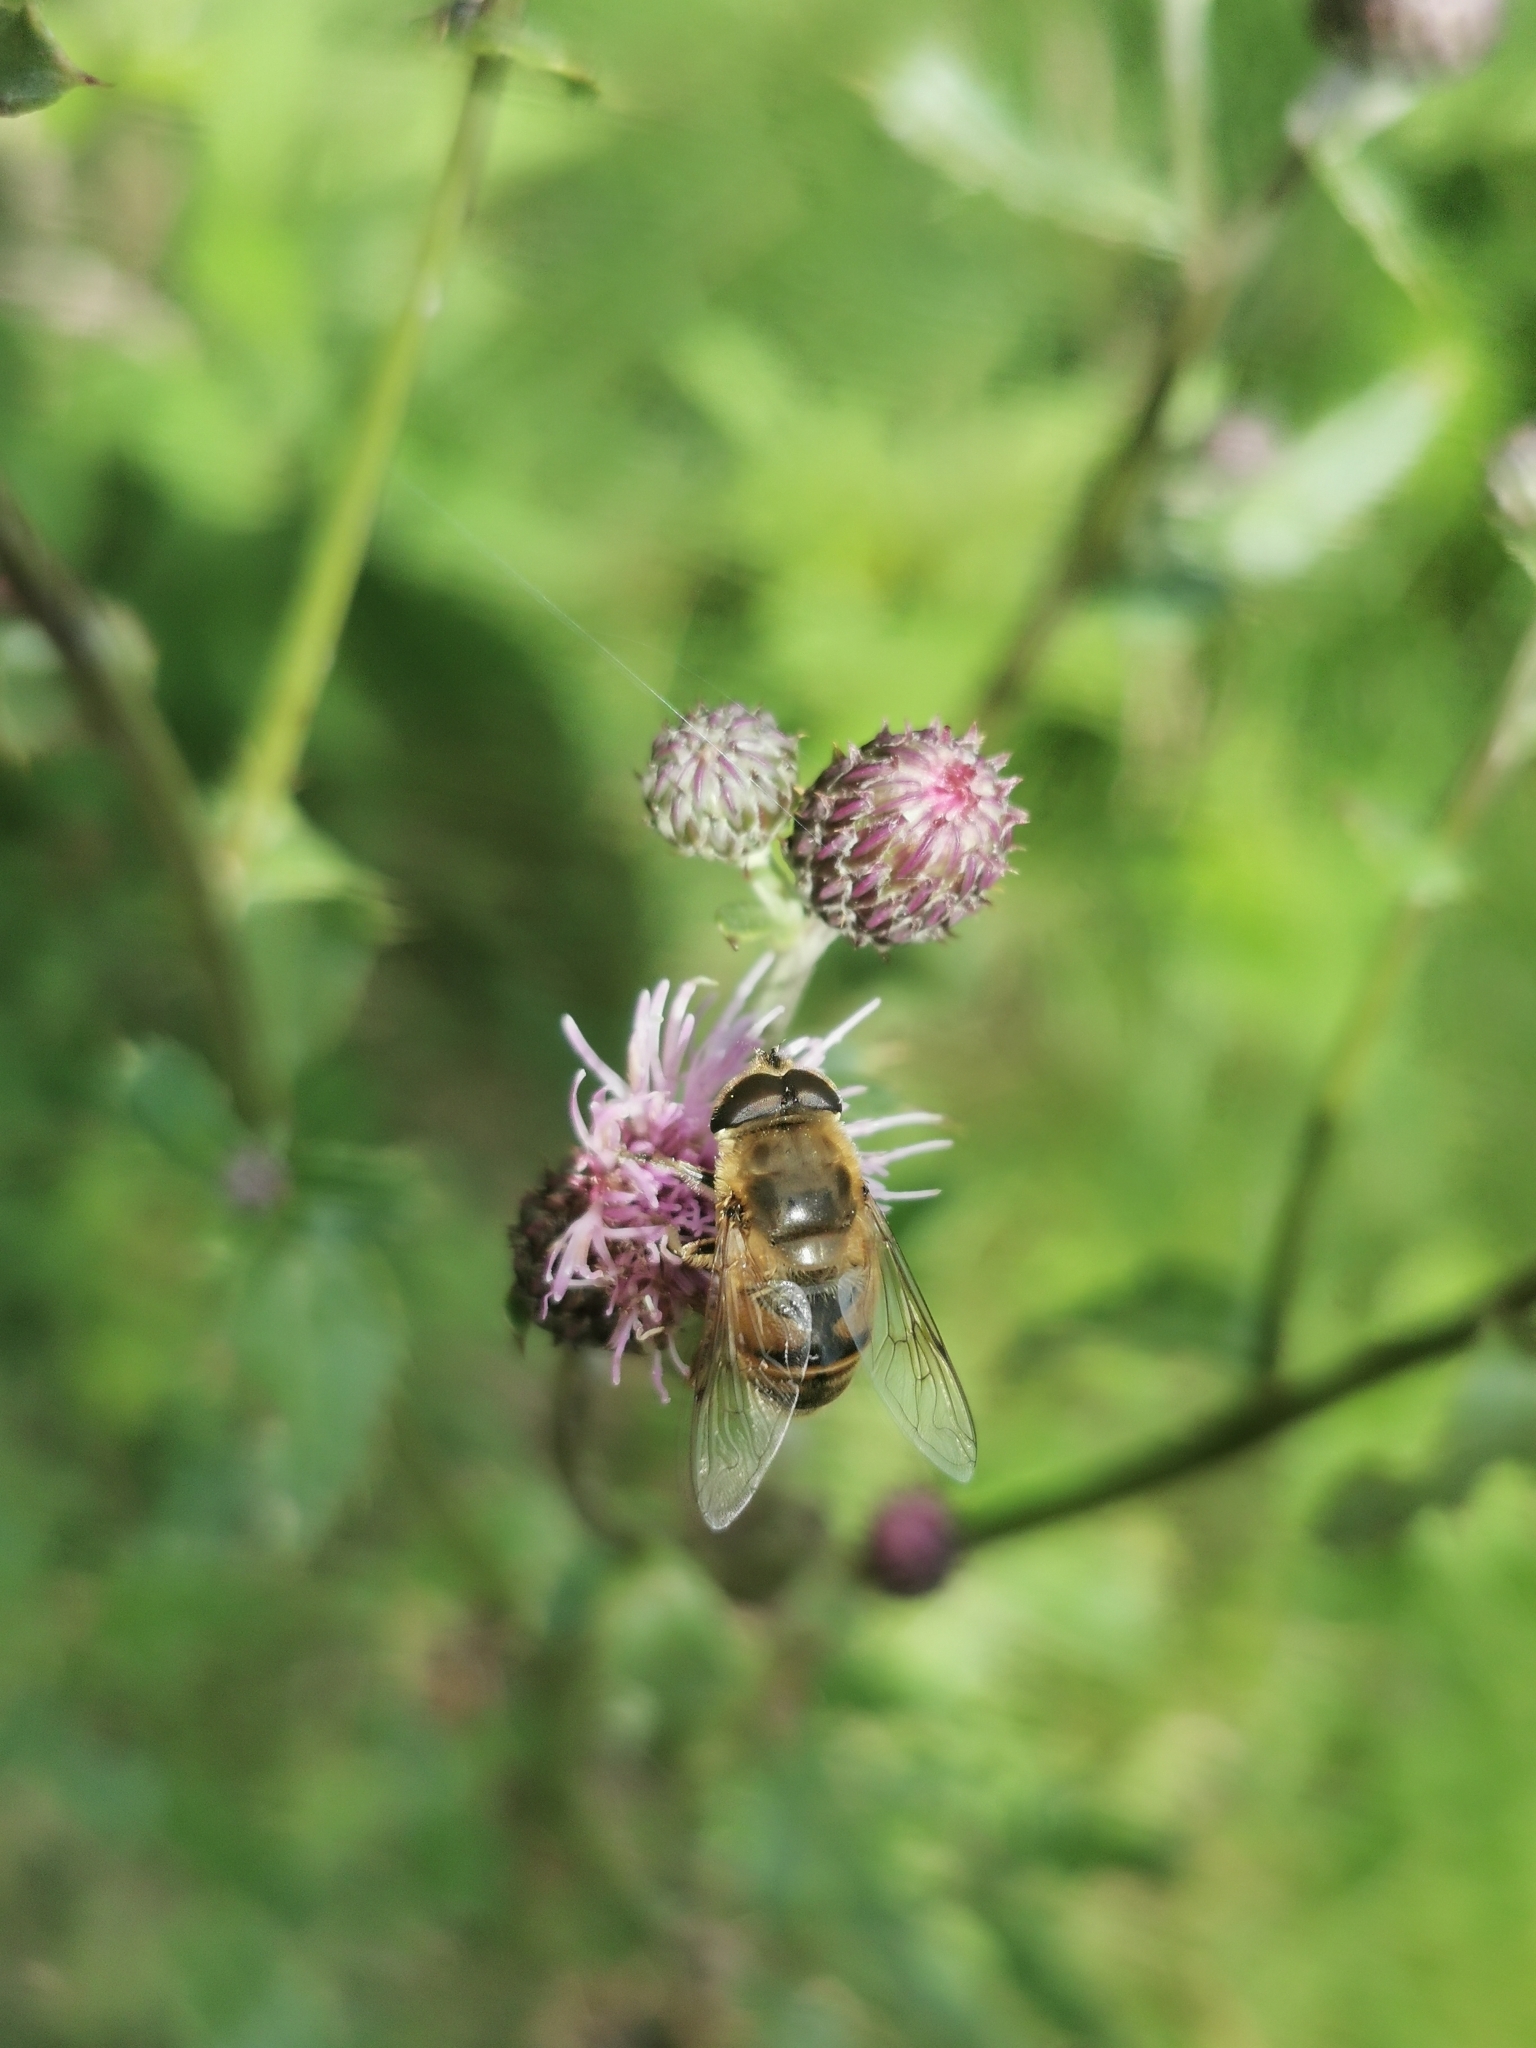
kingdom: Animalia
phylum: Arthropoda
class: Insecta
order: Diptera
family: Syrphidae
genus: Eristalis
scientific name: Eristalis tenax
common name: Drone fly
